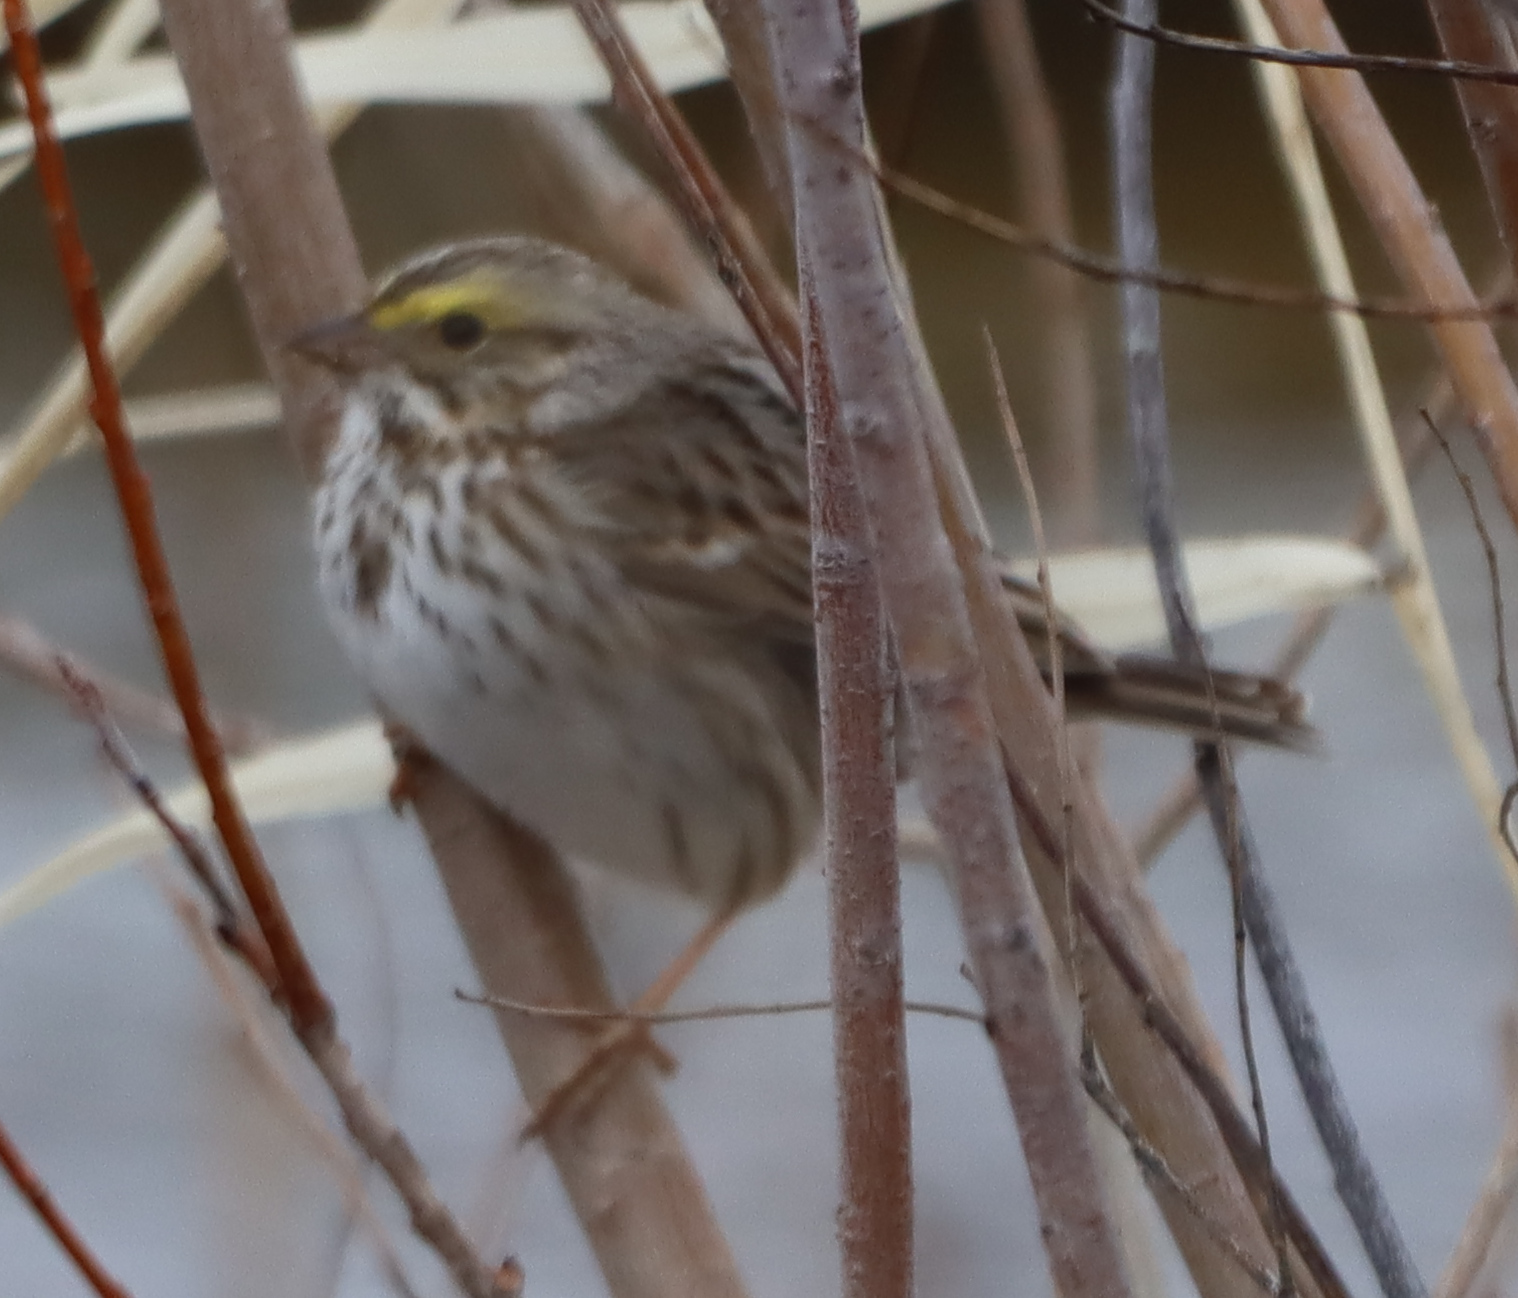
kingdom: Animalia
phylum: Chordata
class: Aves
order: Passeriformes
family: Passerellidae
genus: Passerculus
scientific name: Passerculus sandwichensis
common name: Savannah sparrow
